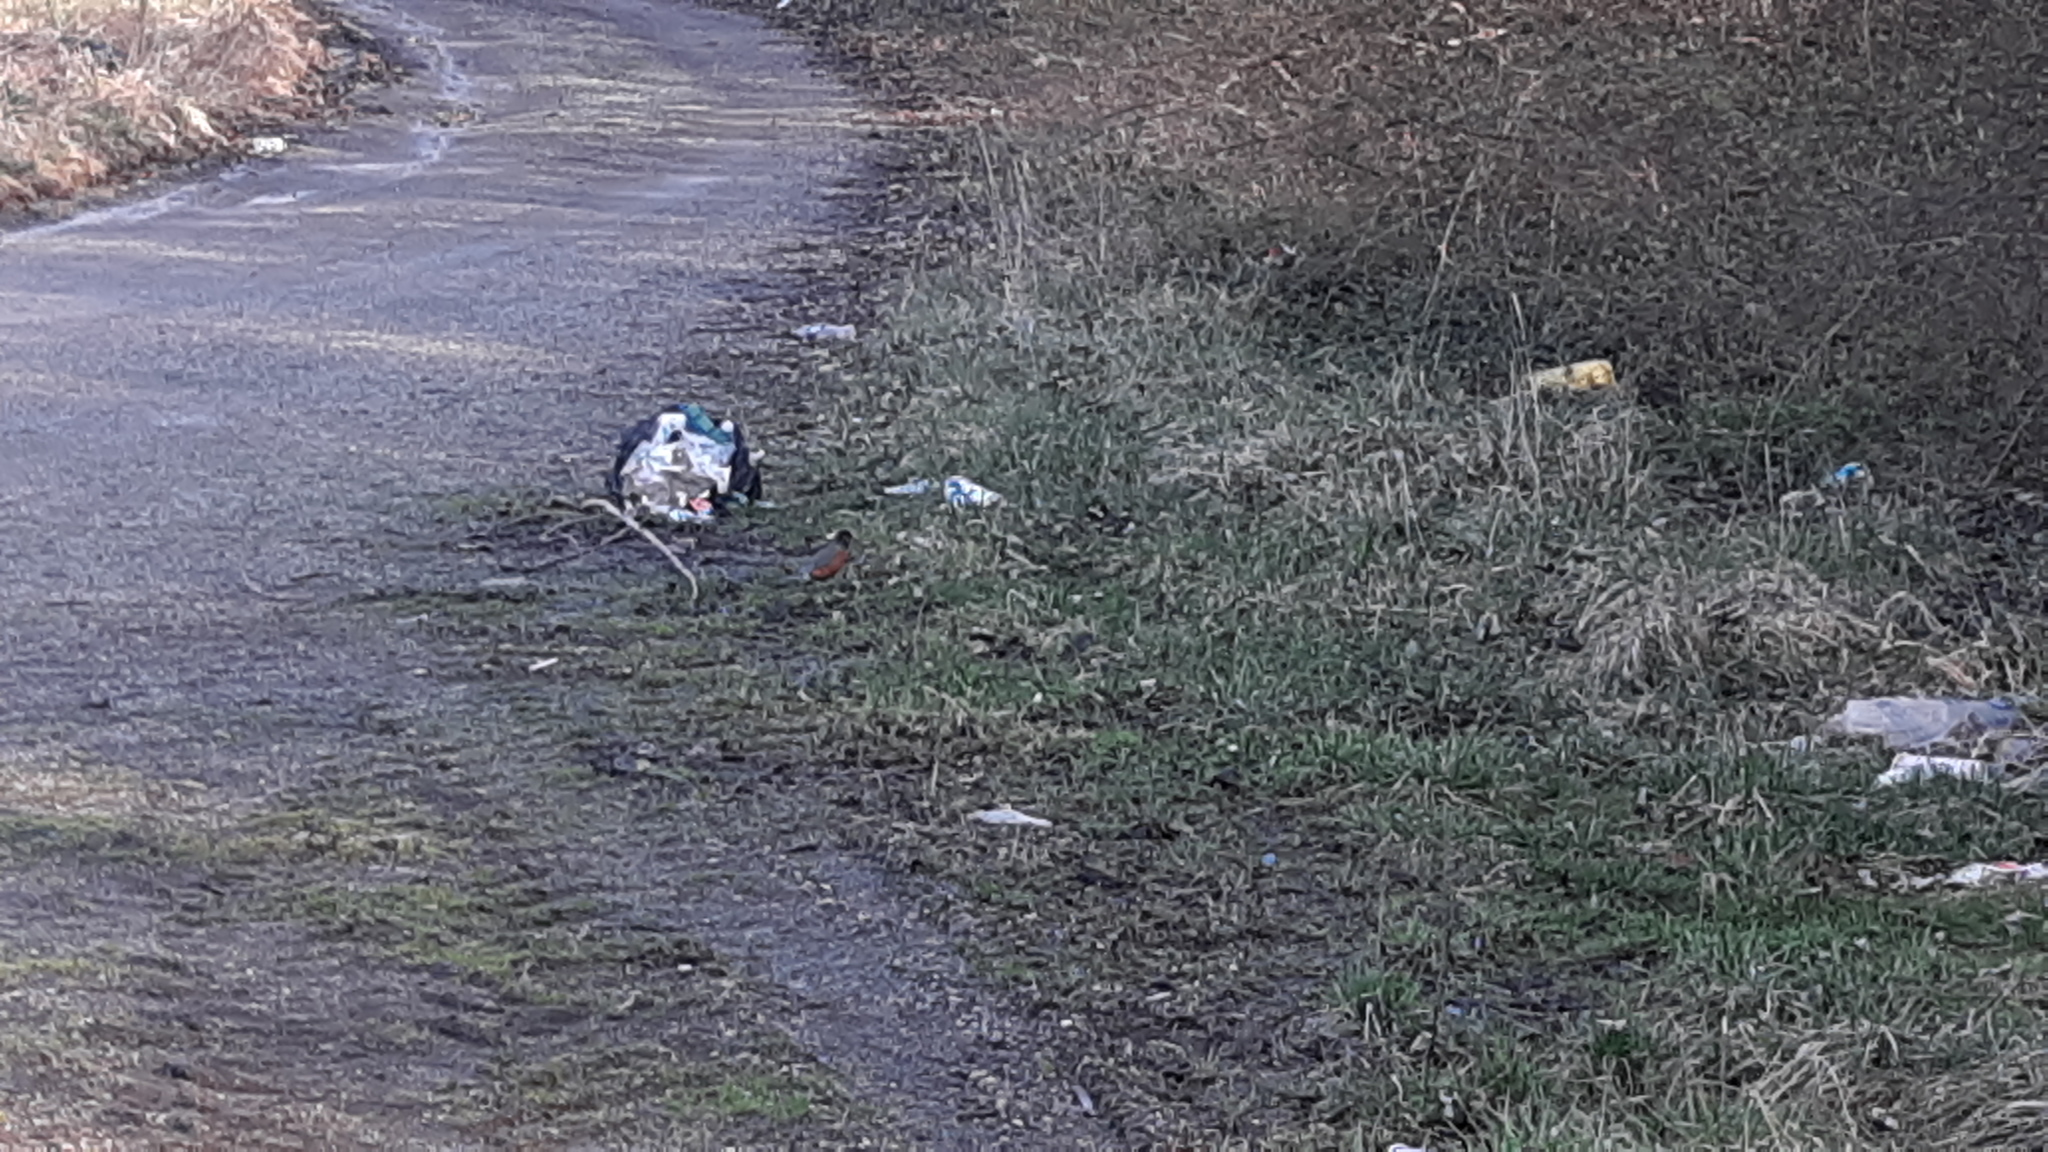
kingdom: Animalia
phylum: Chordata
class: Aves
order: Passeriformes
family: Turdidae
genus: Turdus
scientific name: Turdus migratorius
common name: American robin
